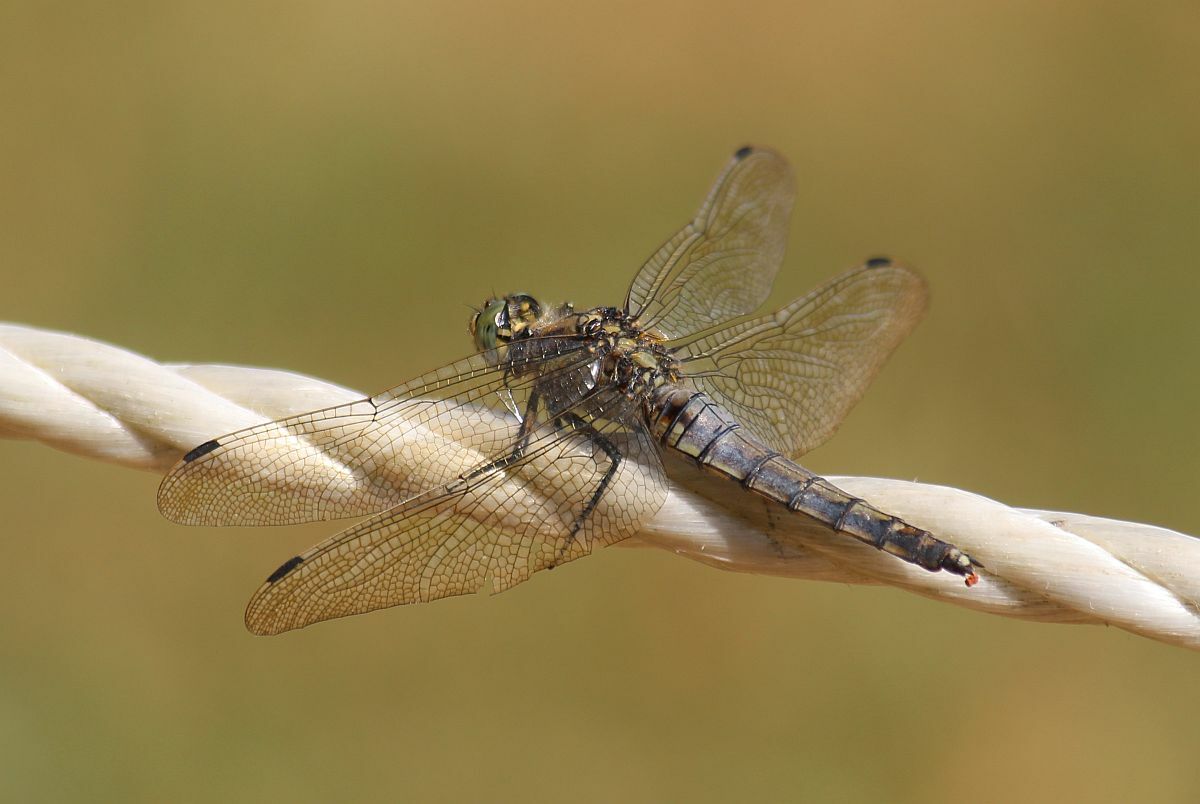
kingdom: Animalia
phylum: Arthropoda
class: Insecta
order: Odonata
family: Libellulidae
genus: Orthetrum
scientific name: Orthetrum cancellatum
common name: Black-tailed skimmer
